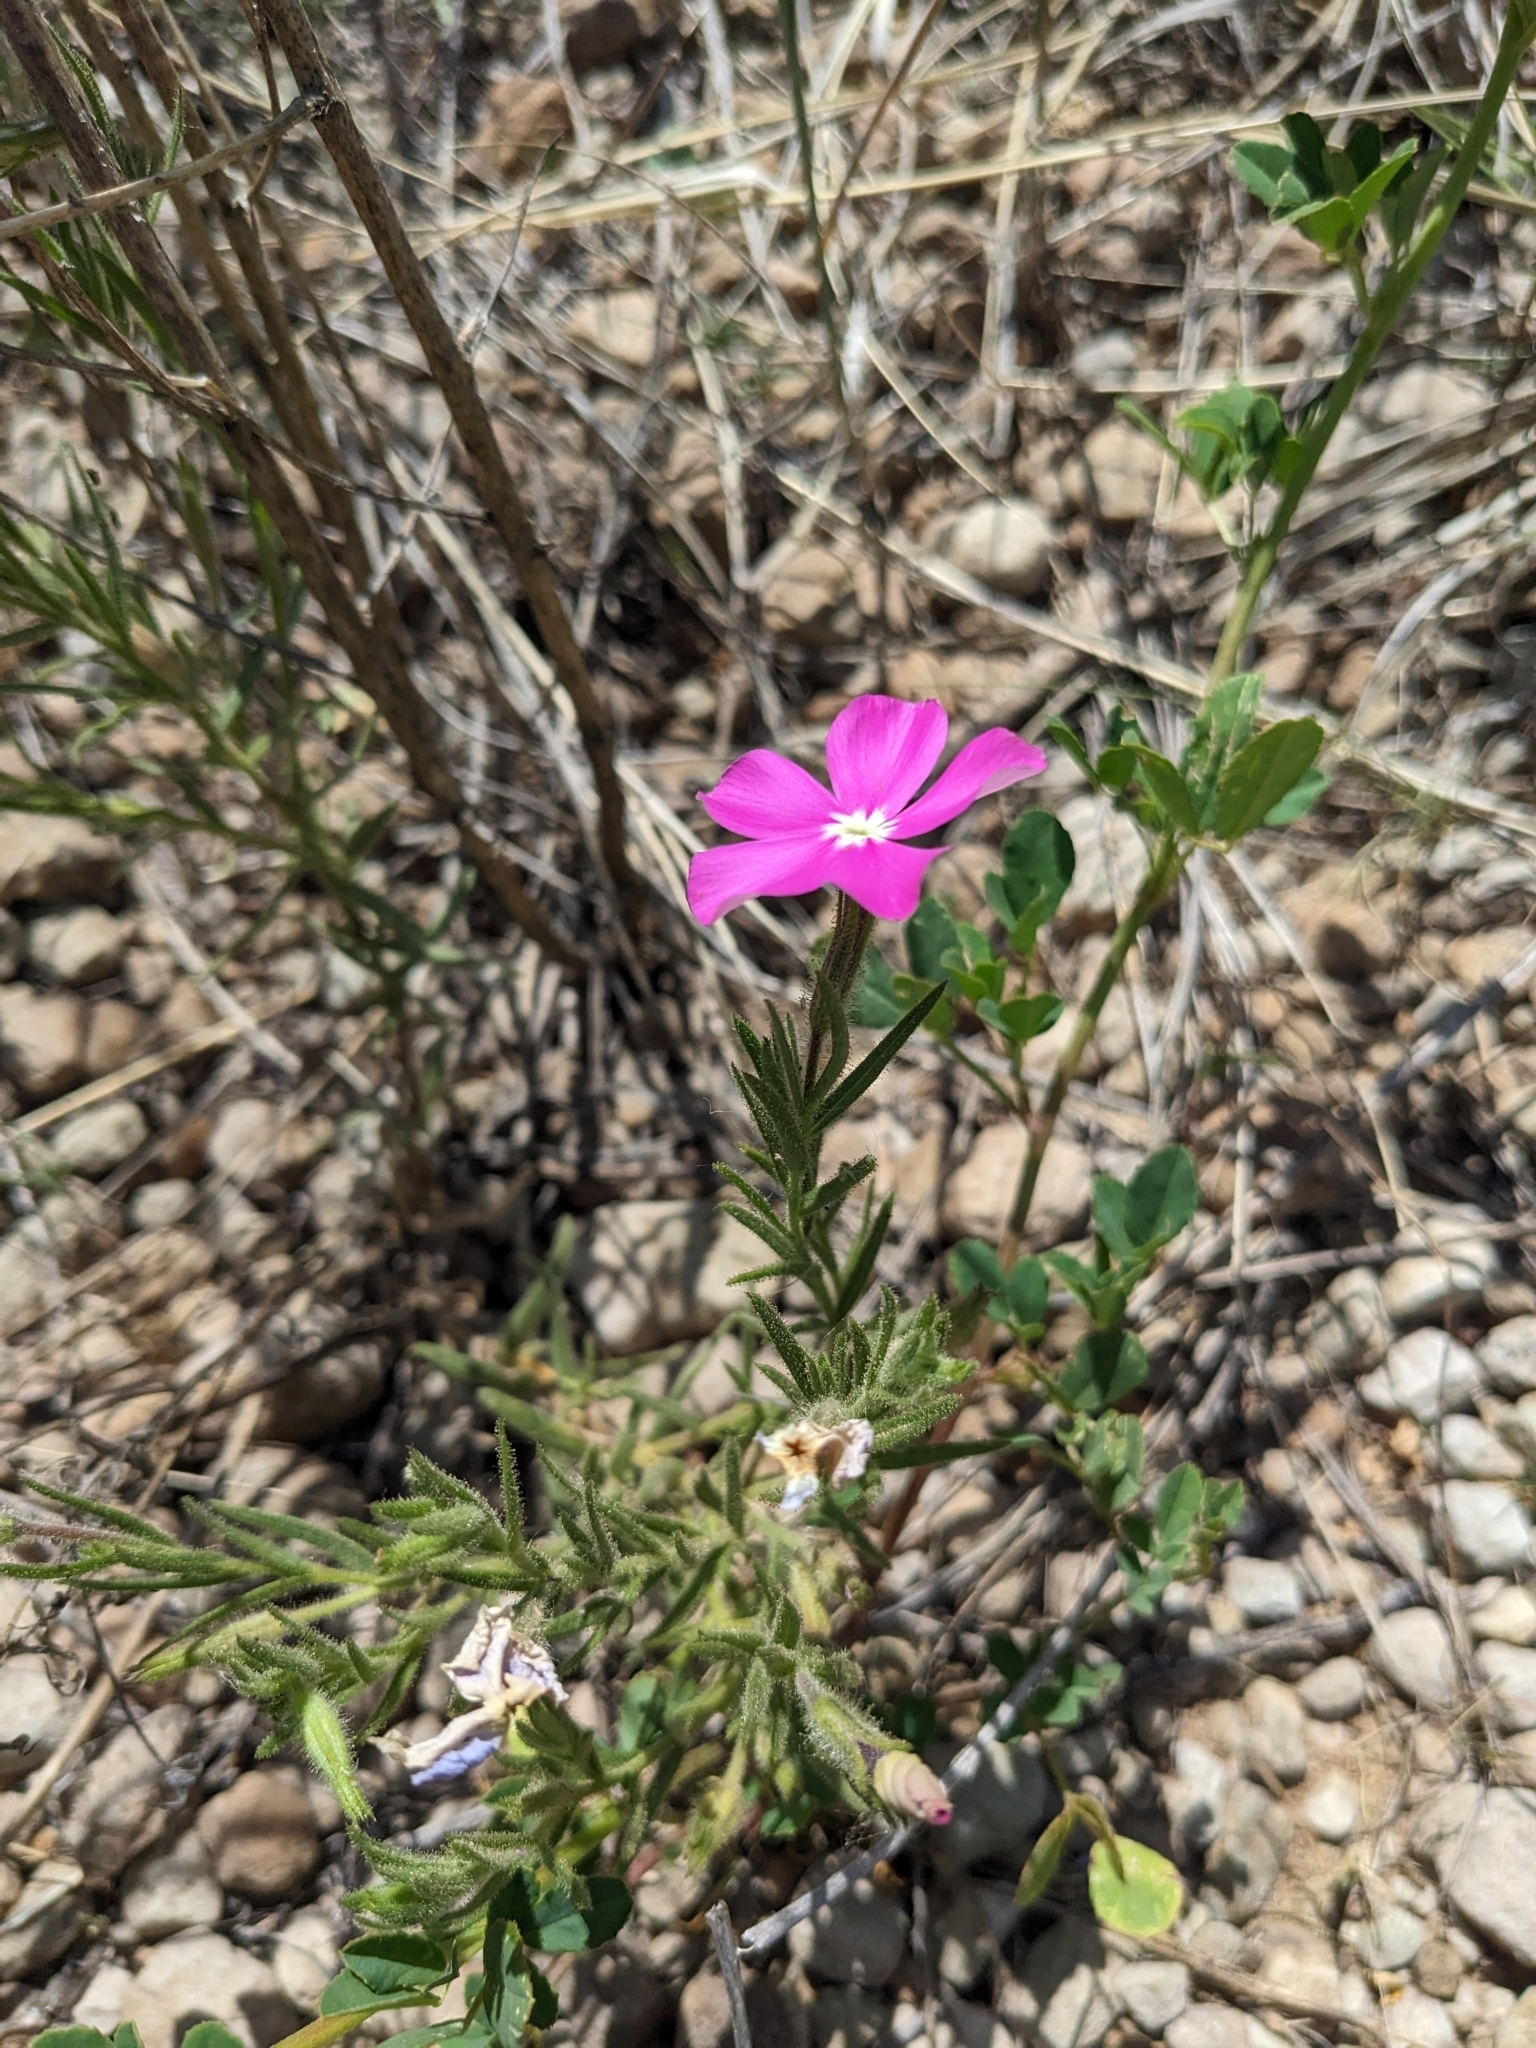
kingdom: Plantae
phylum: Tracheophyta
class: Magnoliopsida
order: Ericales
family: Polemoniaceae
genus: Phlox
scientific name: Phlox nana
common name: Santa fe phlox
